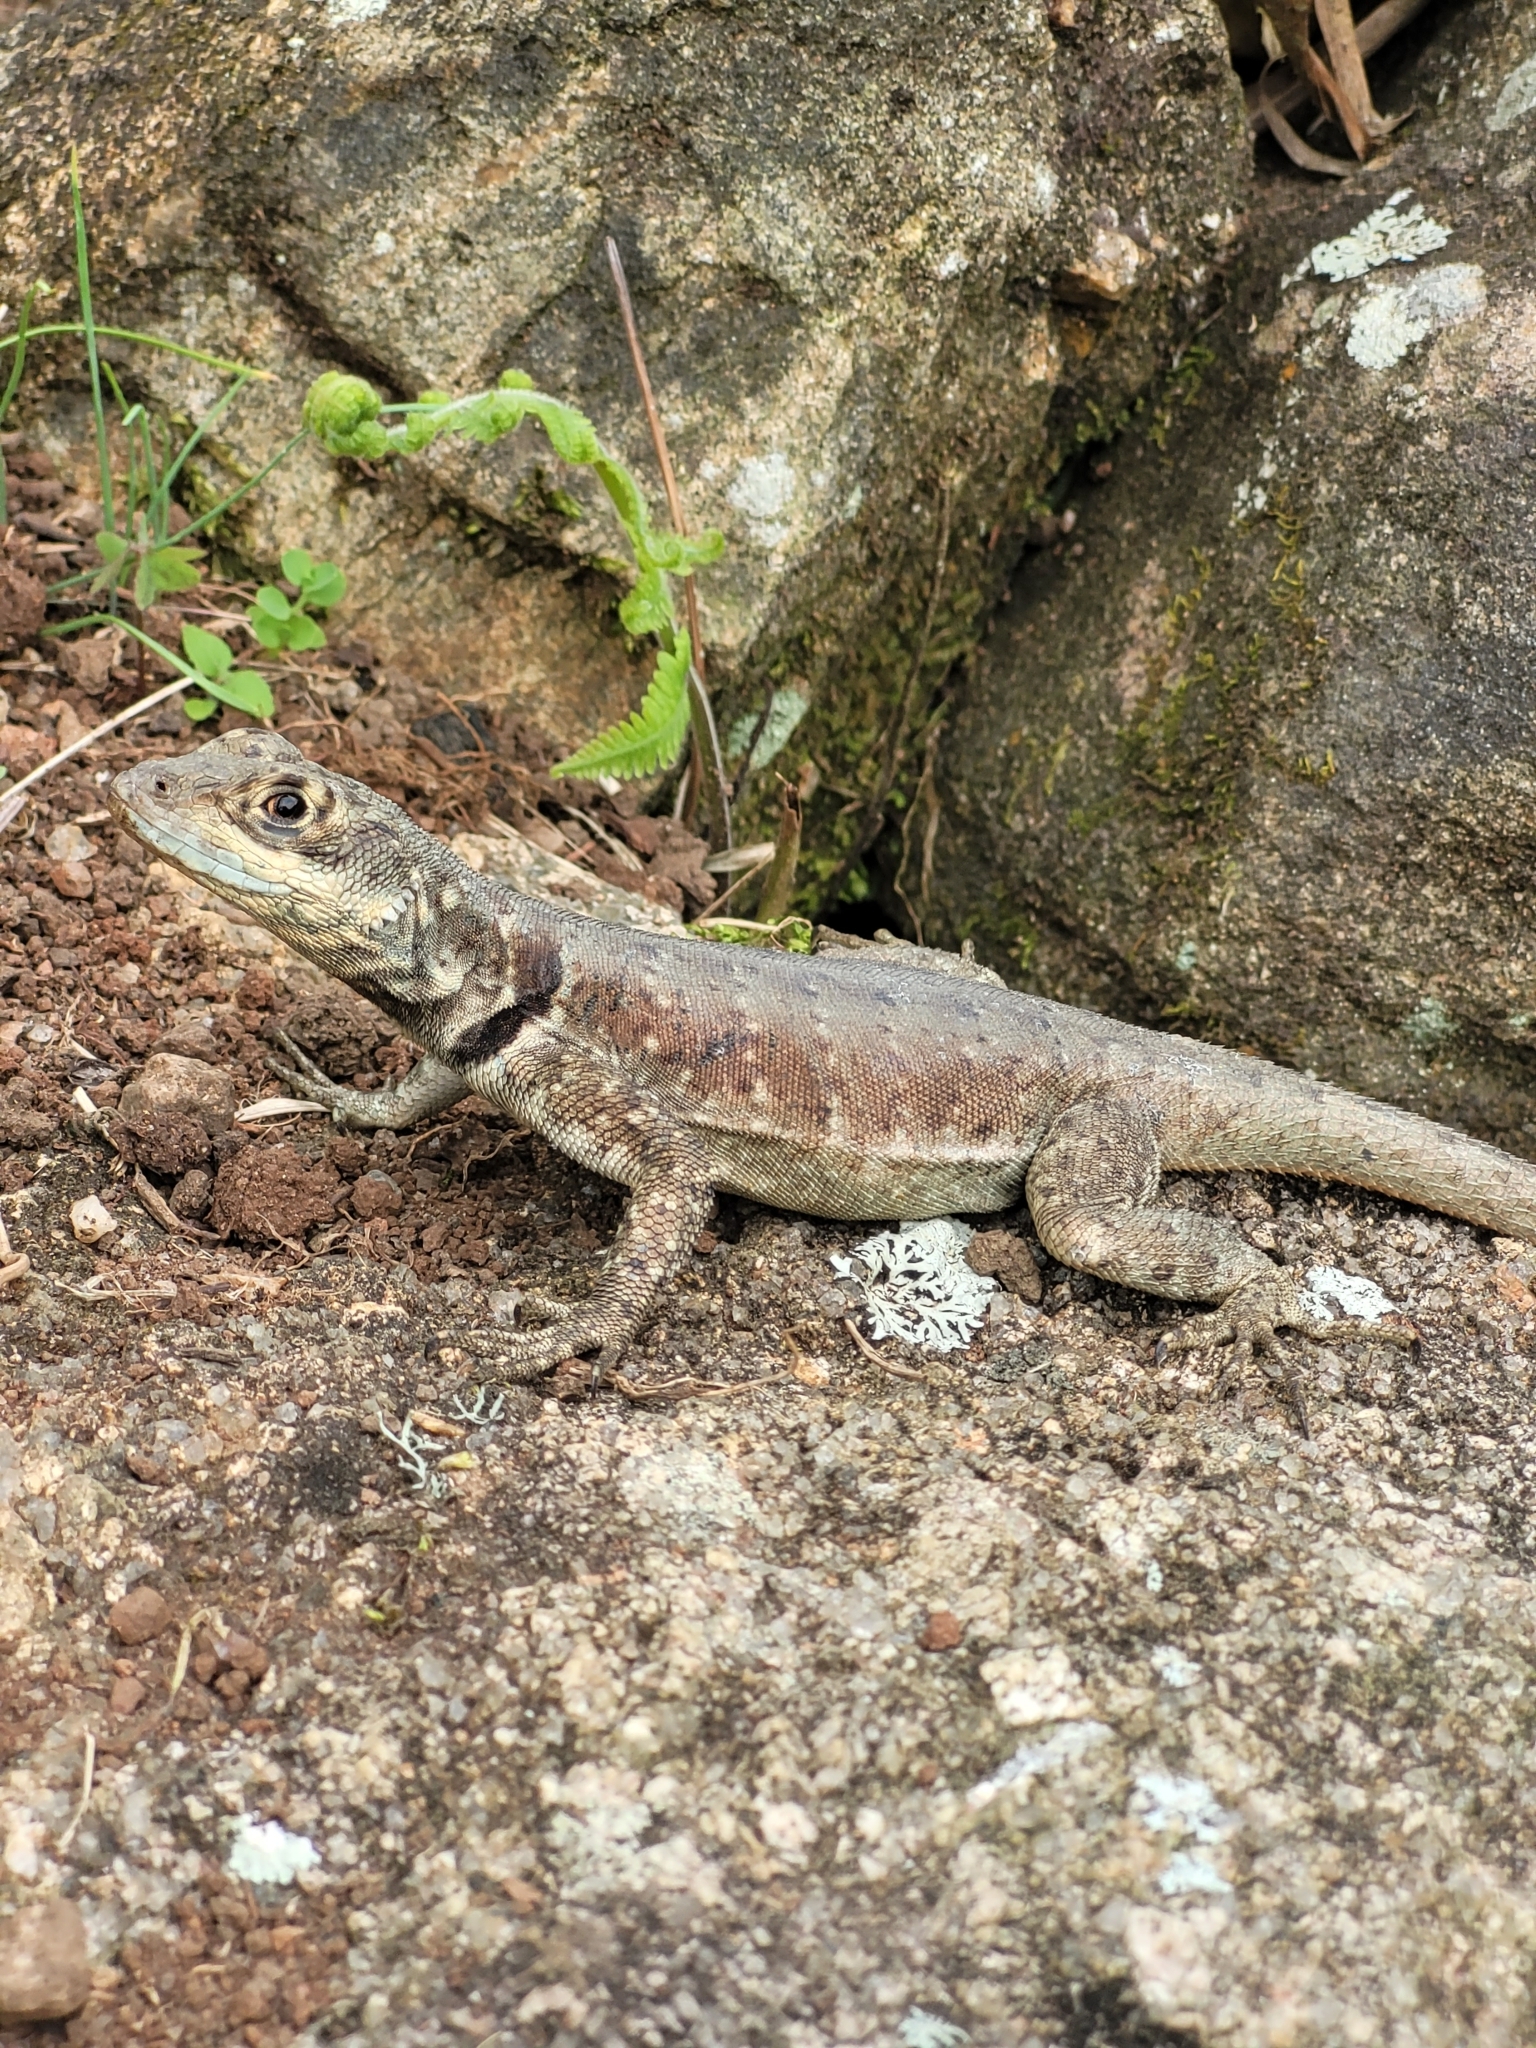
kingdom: Animalia
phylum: Chordata
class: Squamata
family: Tropiduridae
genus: Tropidurus
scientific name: Tropidurus torquatus
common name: Amazon lava lizard
